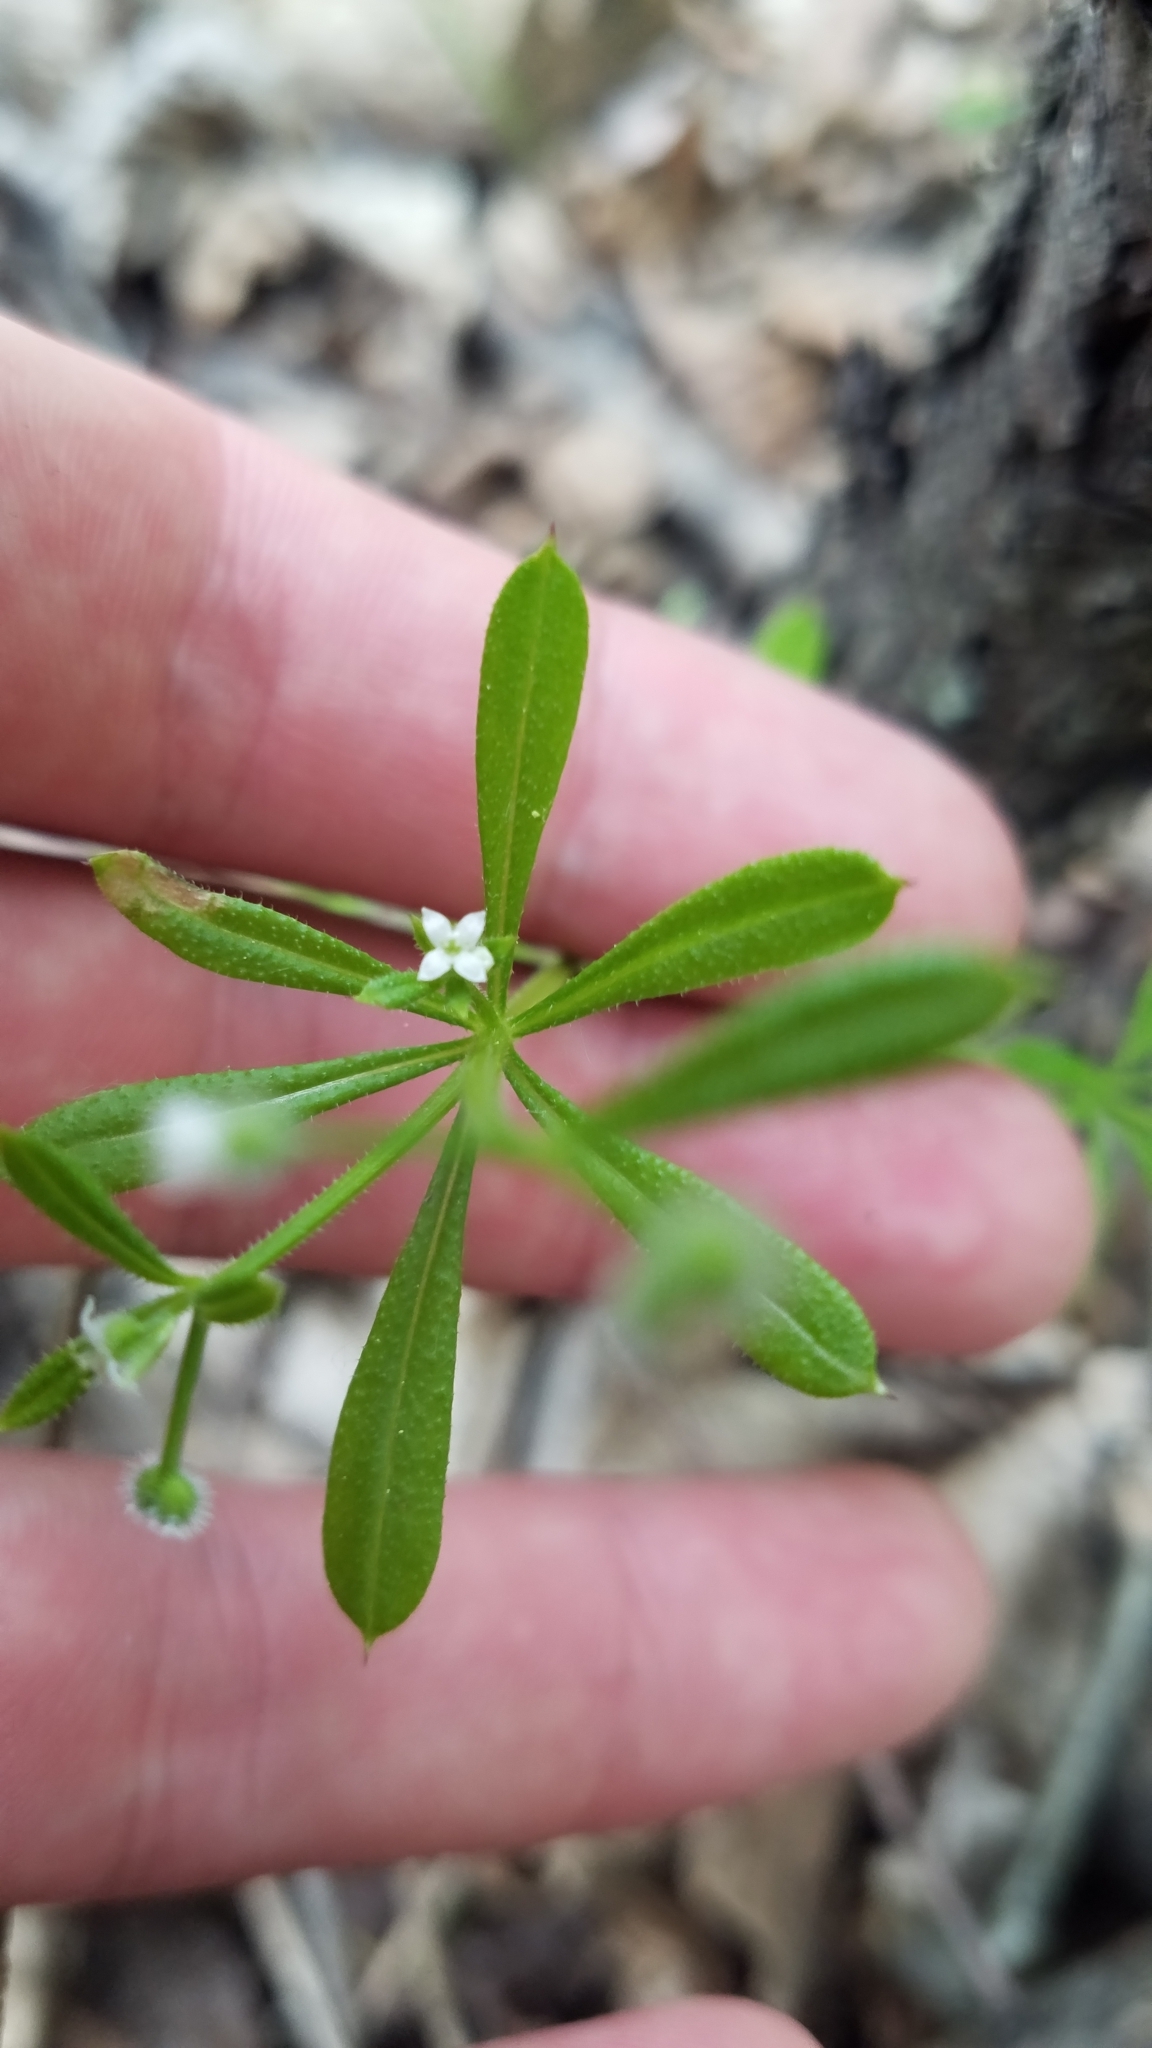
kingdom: Plantae
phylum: Tracheophyta
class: Magnoliopsida
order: Gentianales
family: Rubiaceae
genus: Galium
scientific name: Galium aparine
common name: Cleavers
